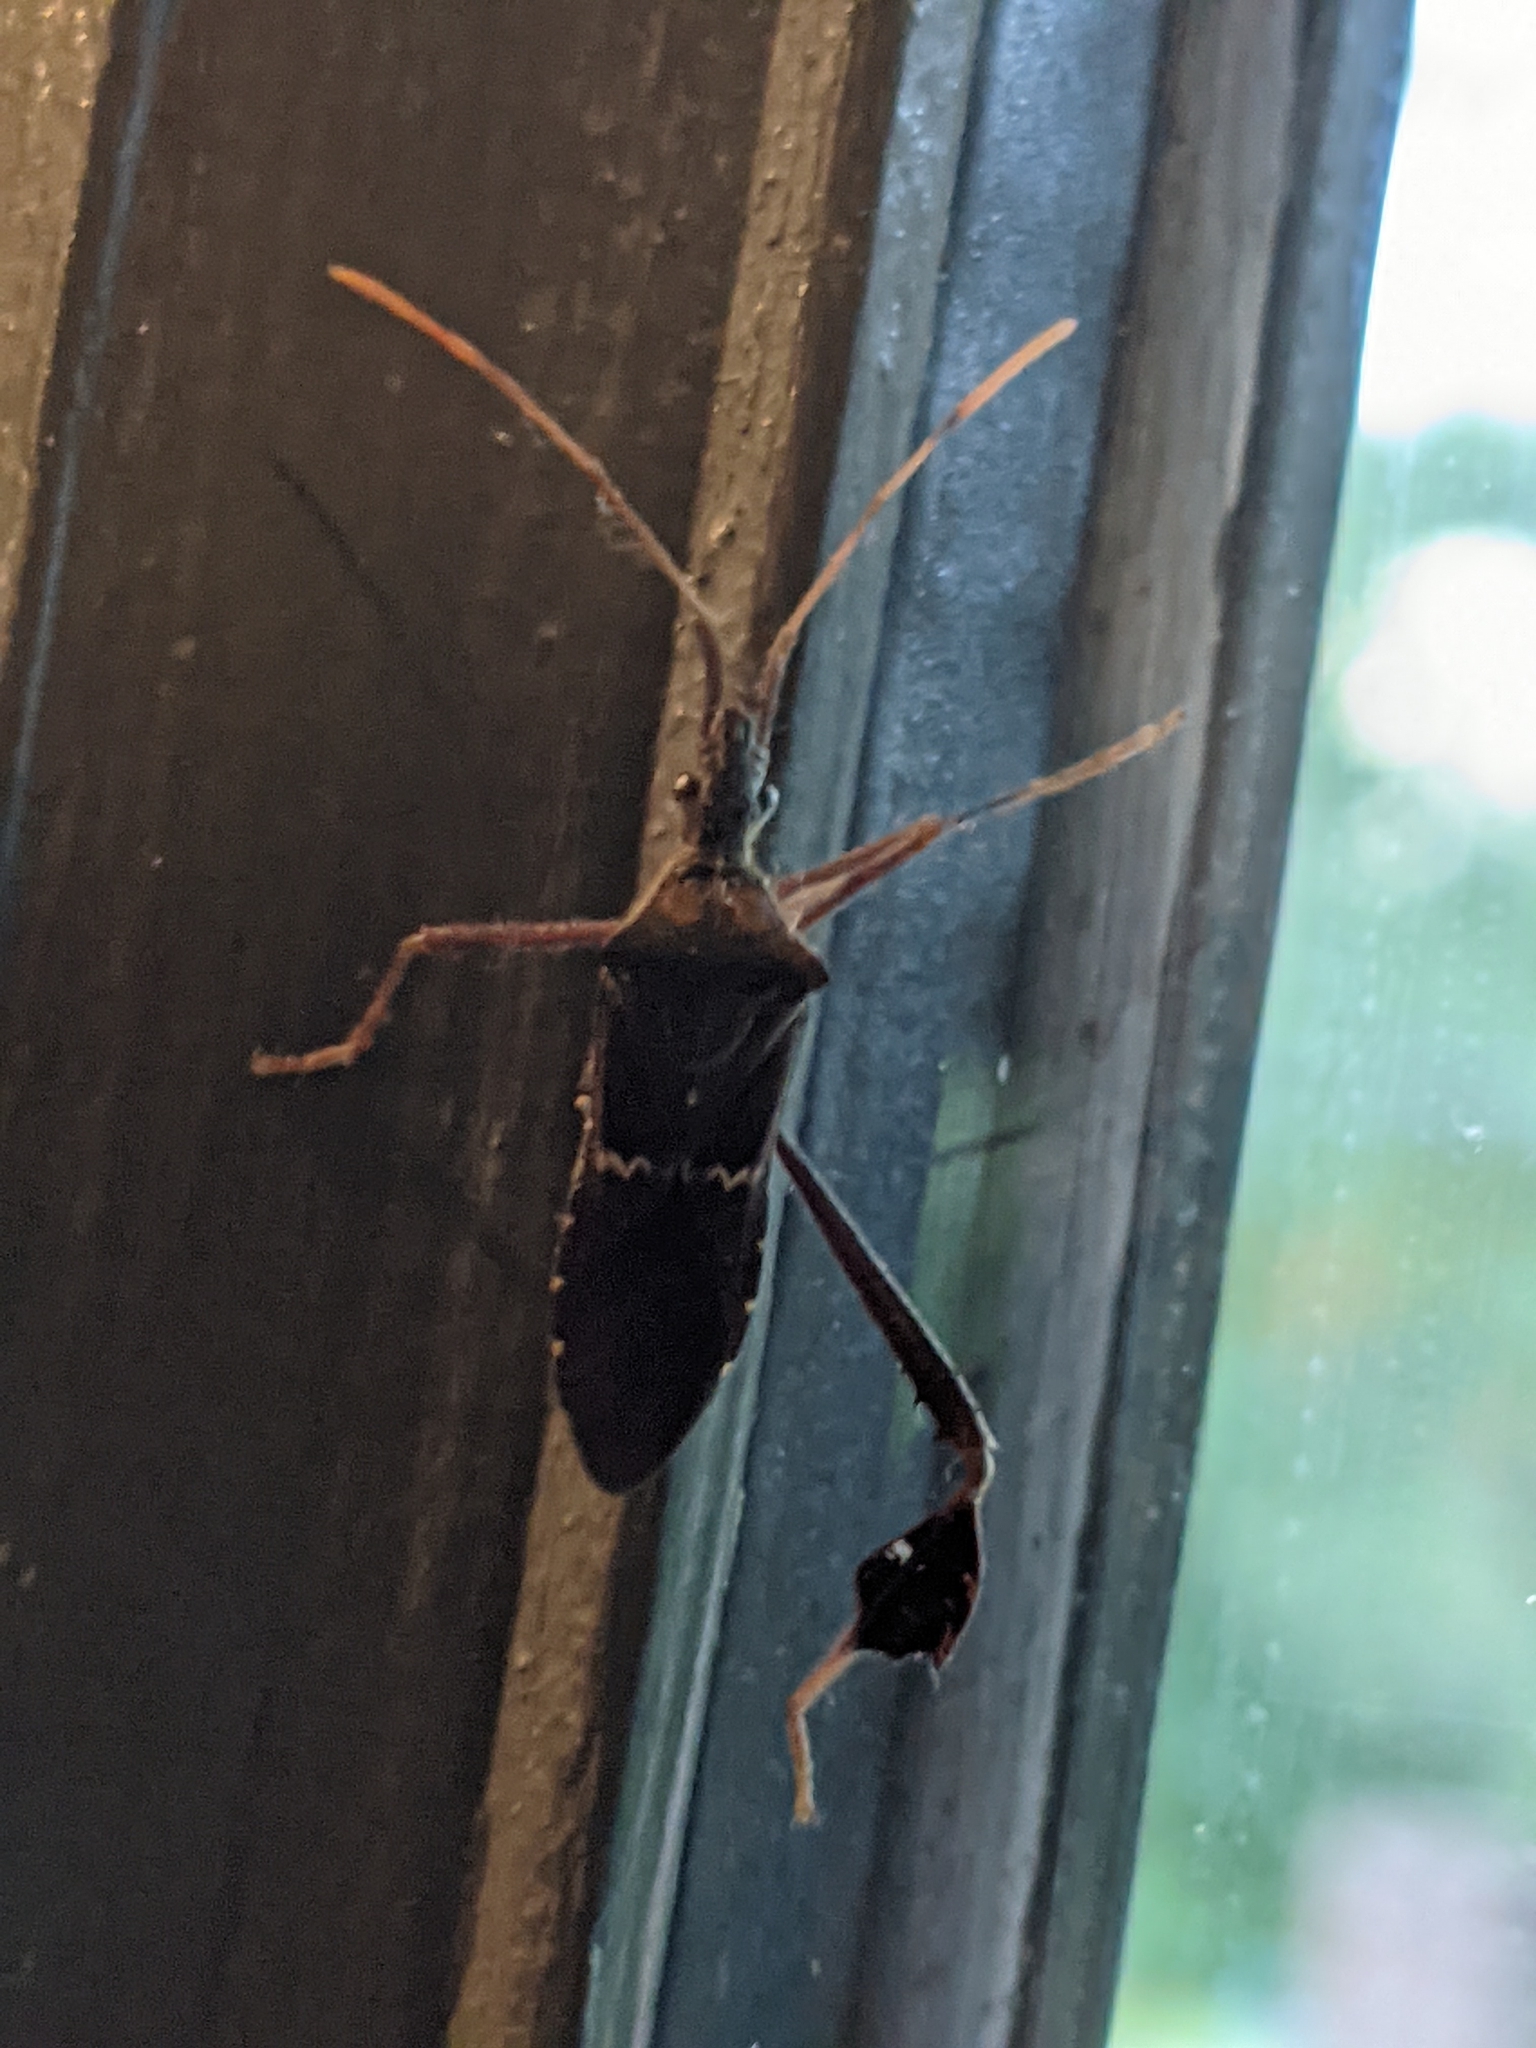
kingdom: Animalia
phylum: Arthropoda
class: Insecta
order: Hemiptera
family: Coreidae
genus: Leptoglossus
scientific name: Leptoglossus zonatus
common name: Large-legged bug
